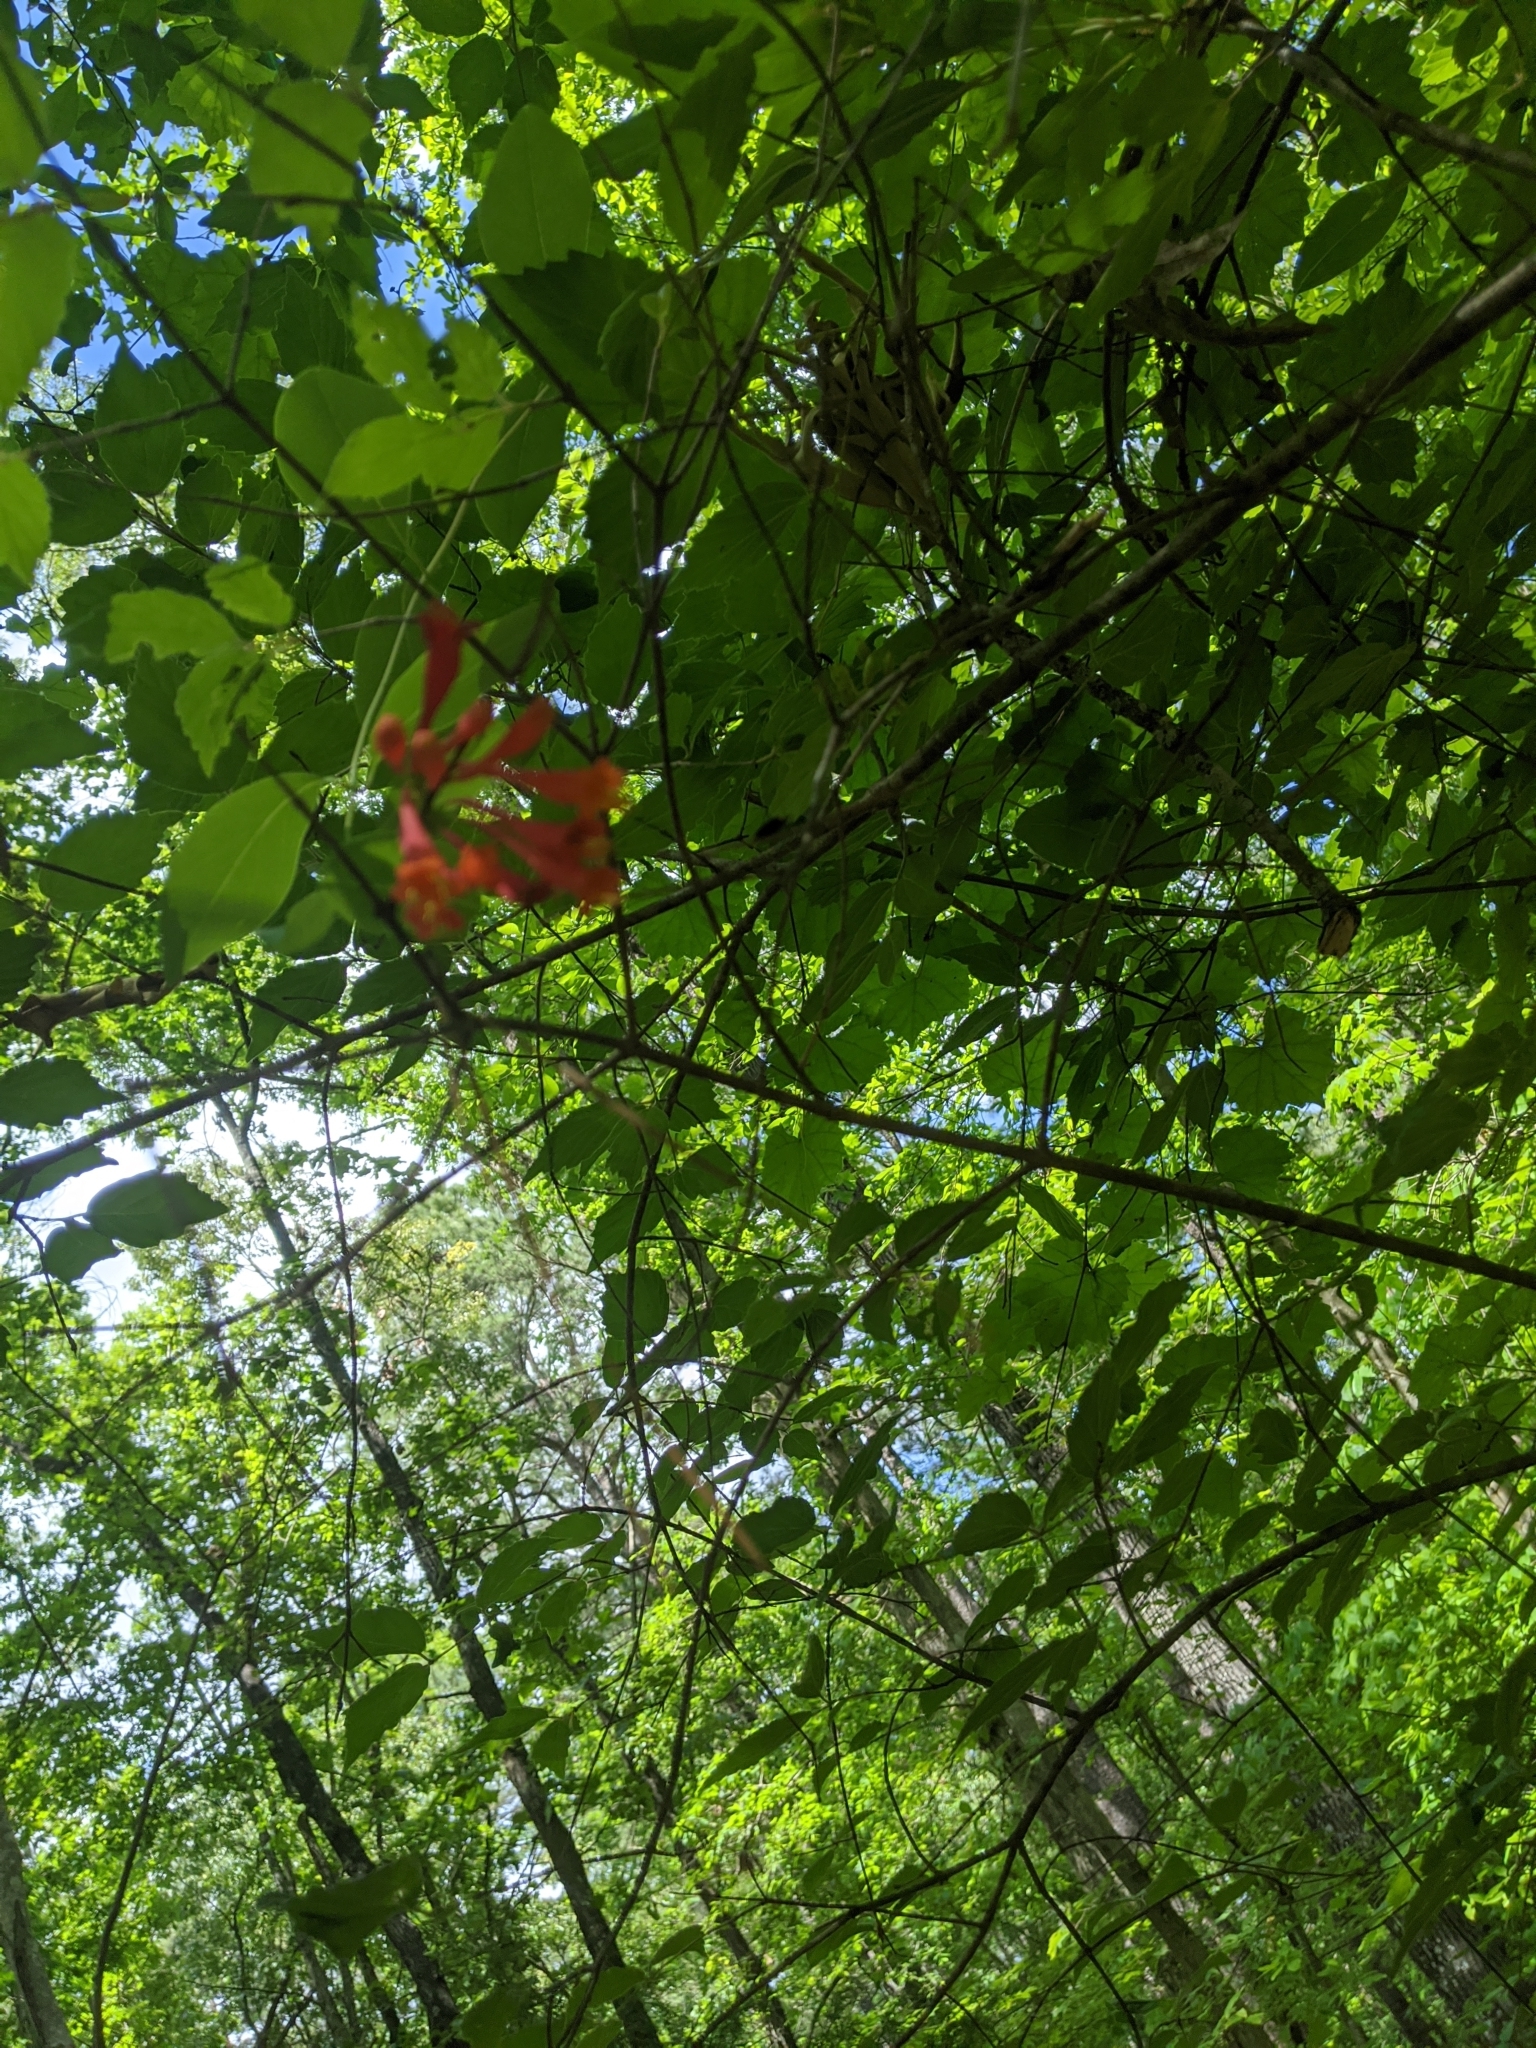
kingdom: Plantae
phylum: Tracheophyta
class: Magnoliopsida
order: Dipsacales
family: Caprifoliaceae
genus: Lonicera
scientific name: Lonicera sempervirens
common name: Coral honeysuckle
